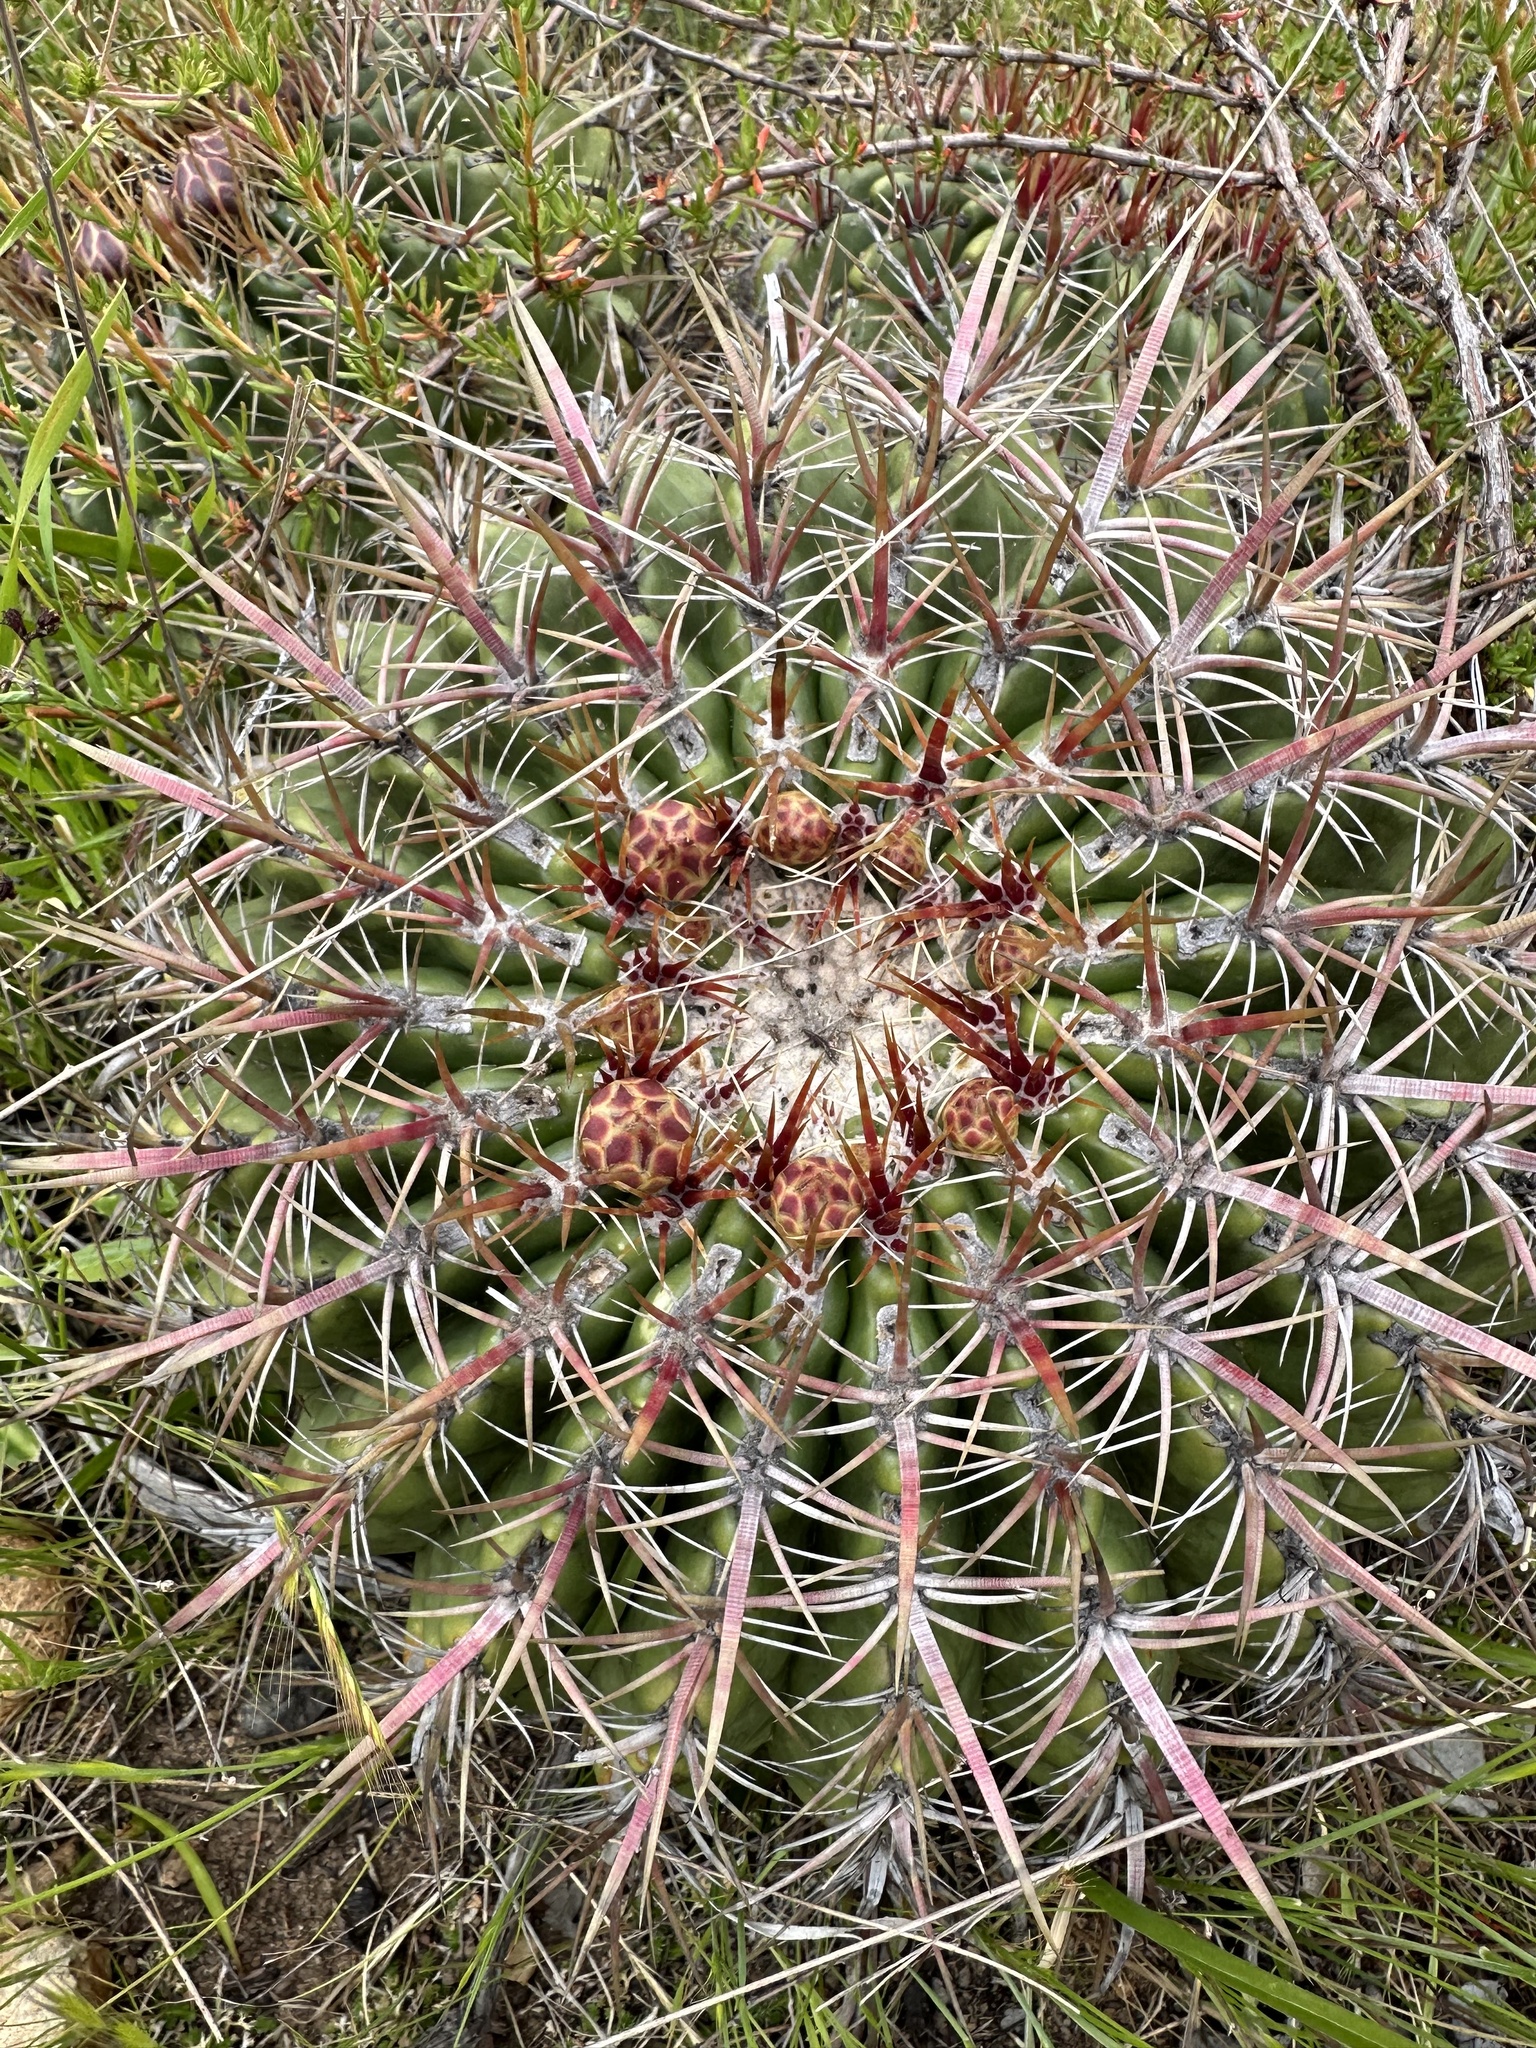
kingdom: Plantae
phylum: Tracheophyta
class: Magnoliopsida
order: Caryophyllales
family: Cactaceae
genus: Ferocactus
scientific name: Ferocactus viridescens
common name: San diego barrel cactus
